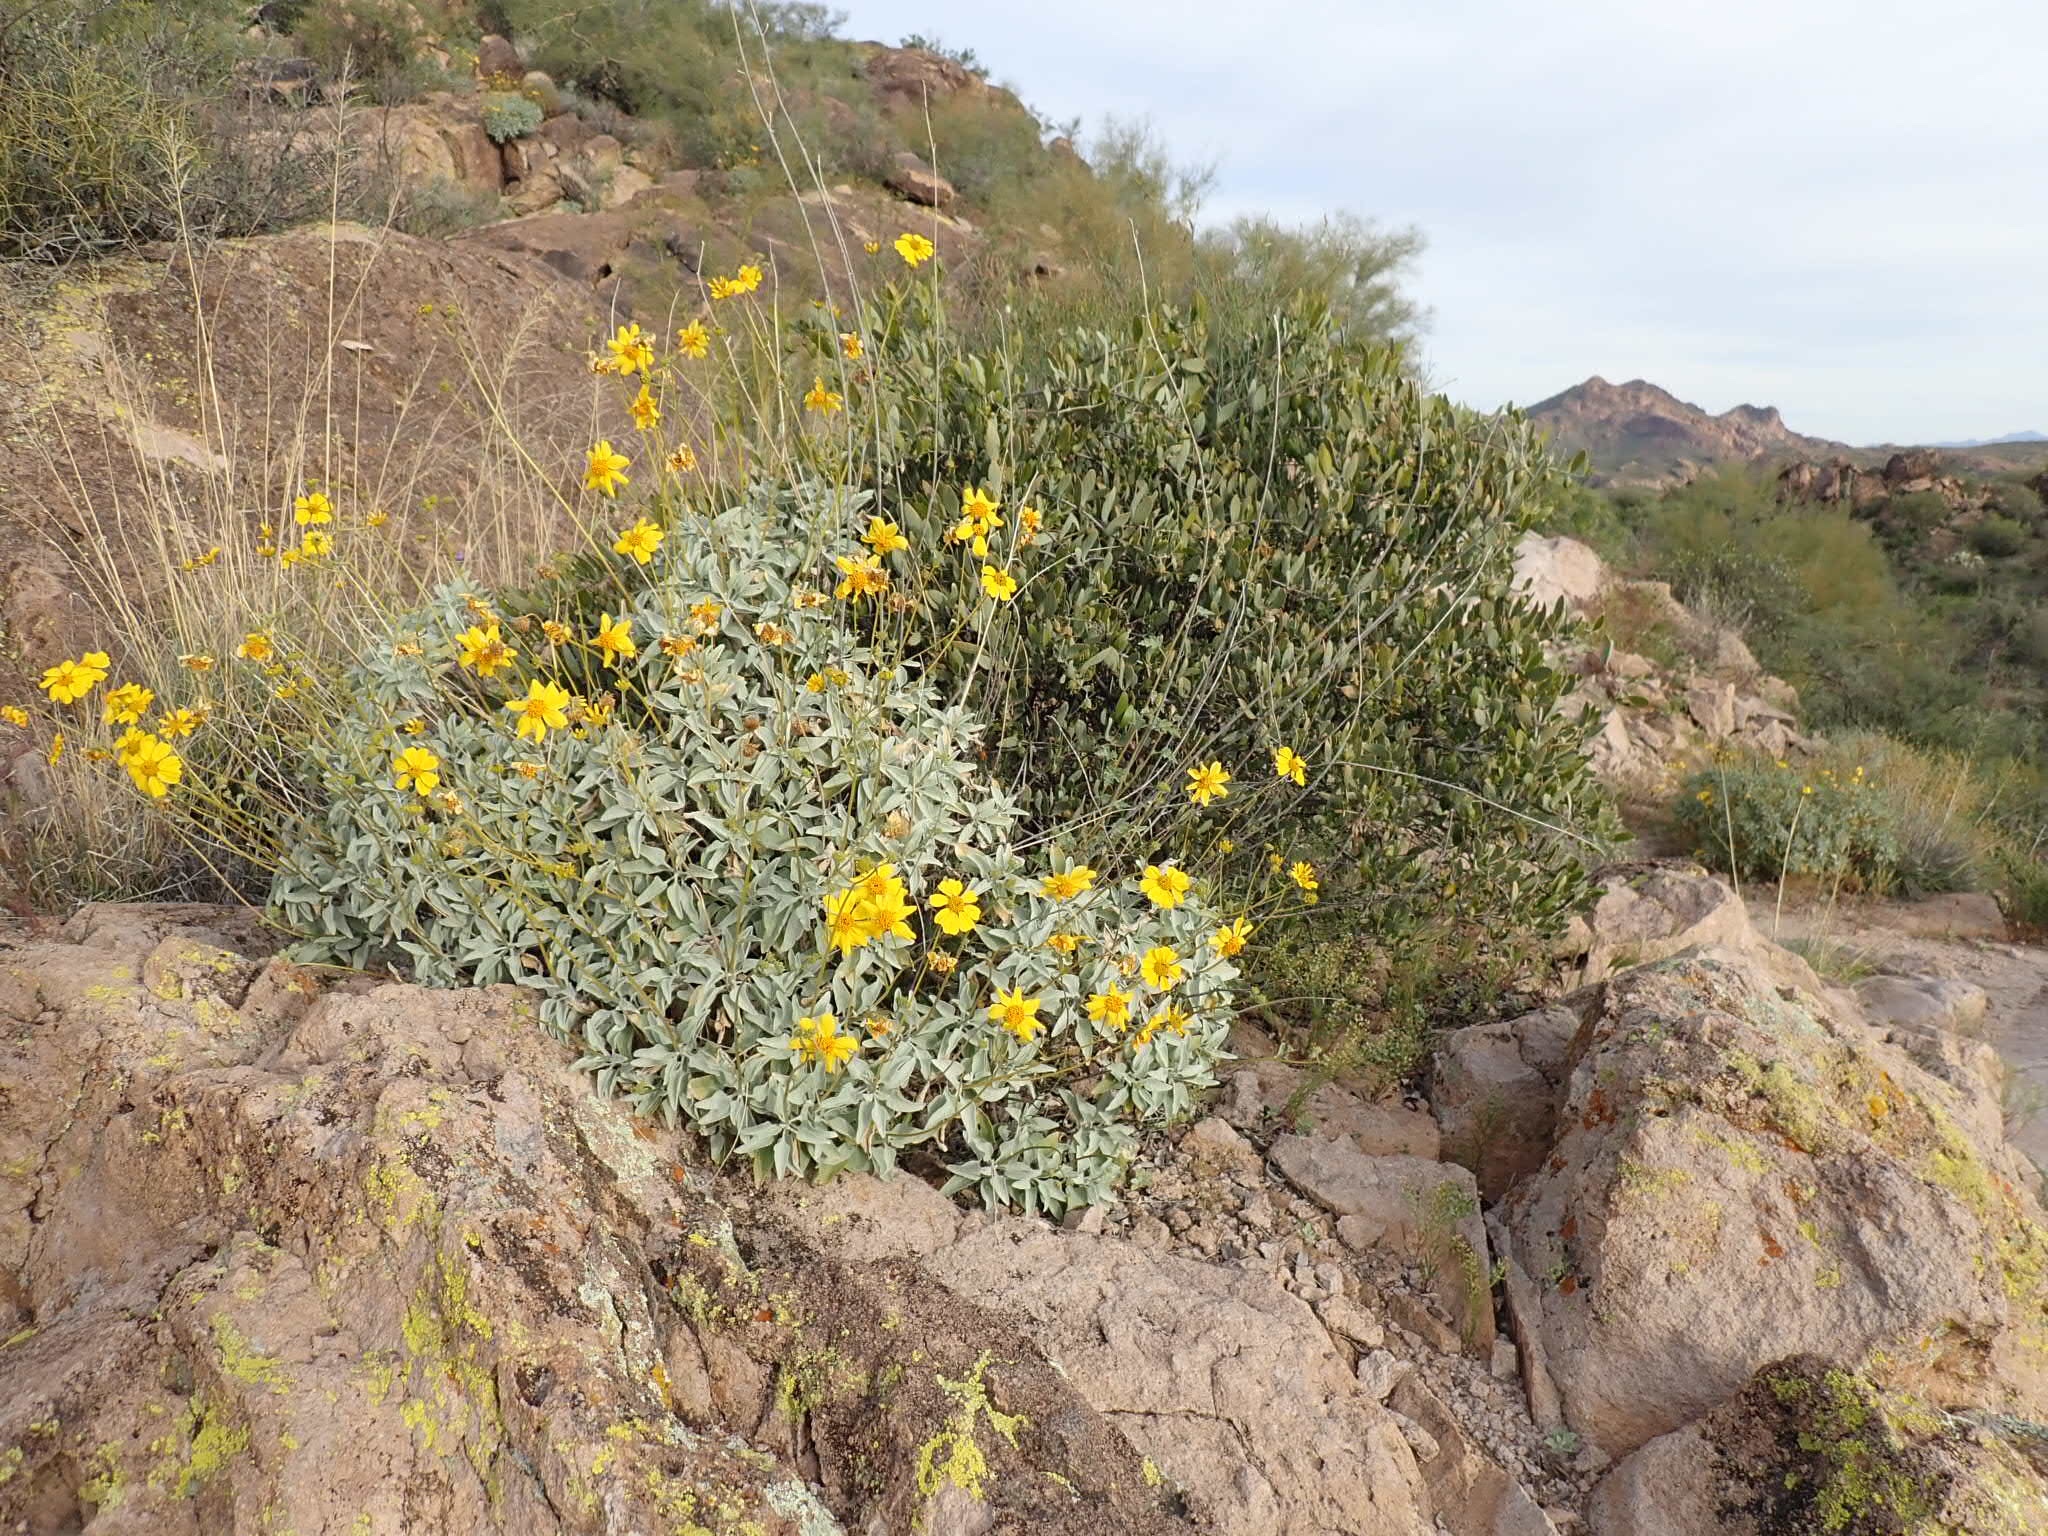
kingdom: Plantae
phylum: Tracheophyta
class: Magnoliopsida
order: Asterales
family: Asteraceae
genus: Encelia
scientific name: Encelia farinosa
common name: Brittlebush
